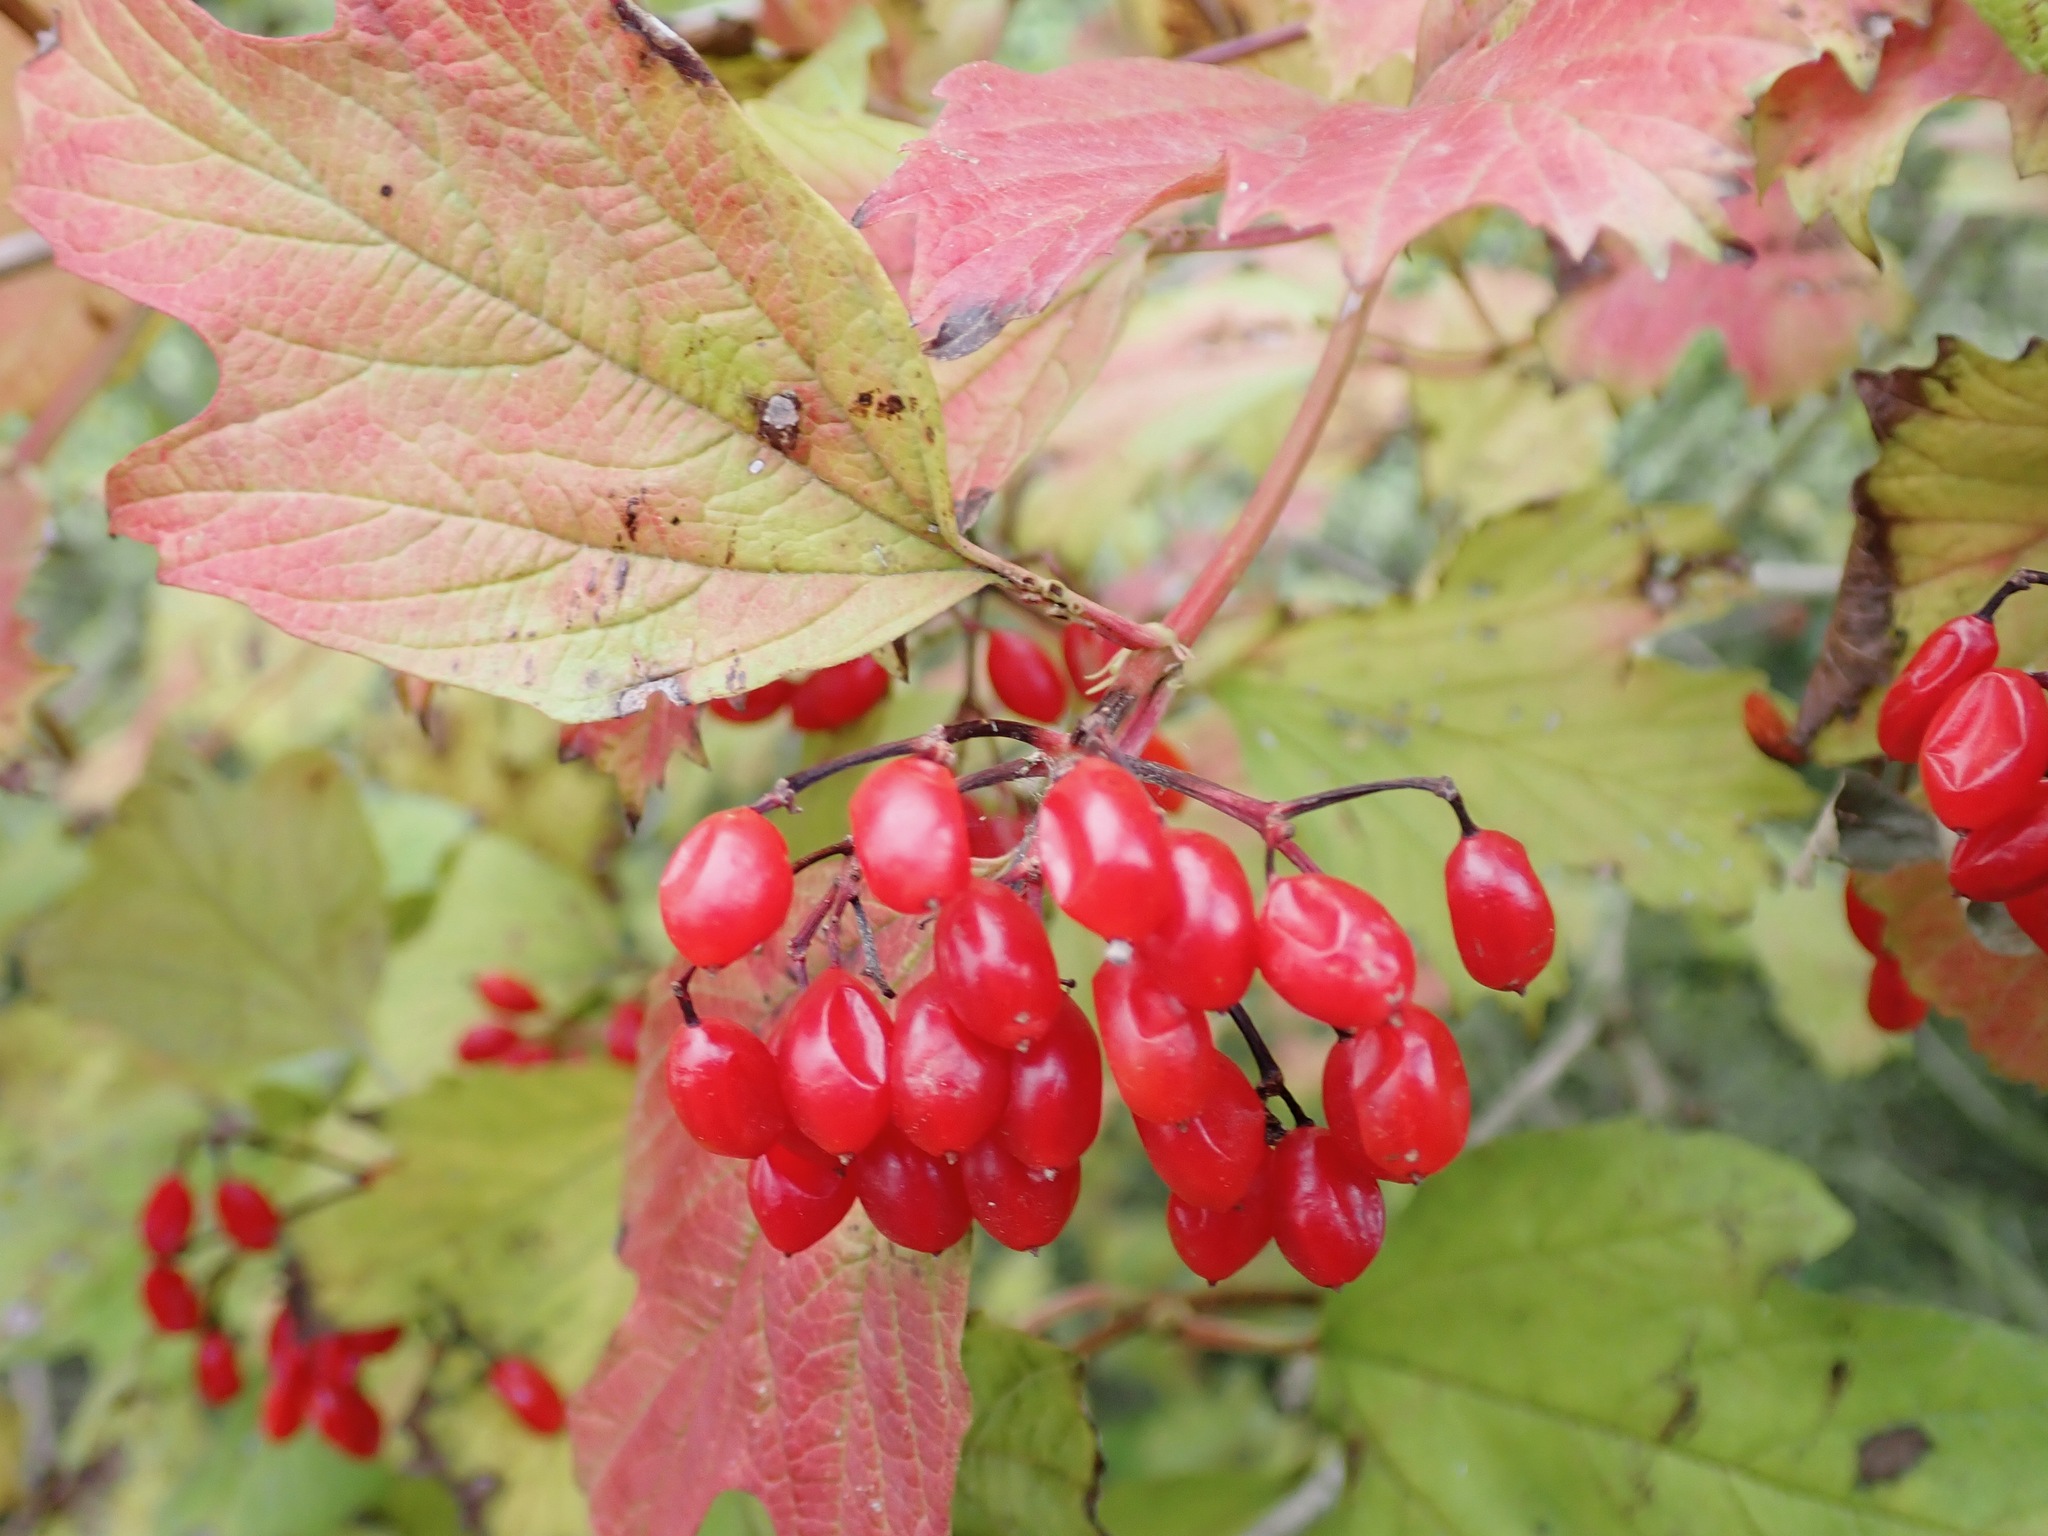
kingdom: Plantae
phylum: Tracheophyta
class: Magnoliopsida
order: Dipsacales
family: Viburnaceae
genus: Viburnum
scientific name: Viburnum opulus
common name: Guelder-rose
